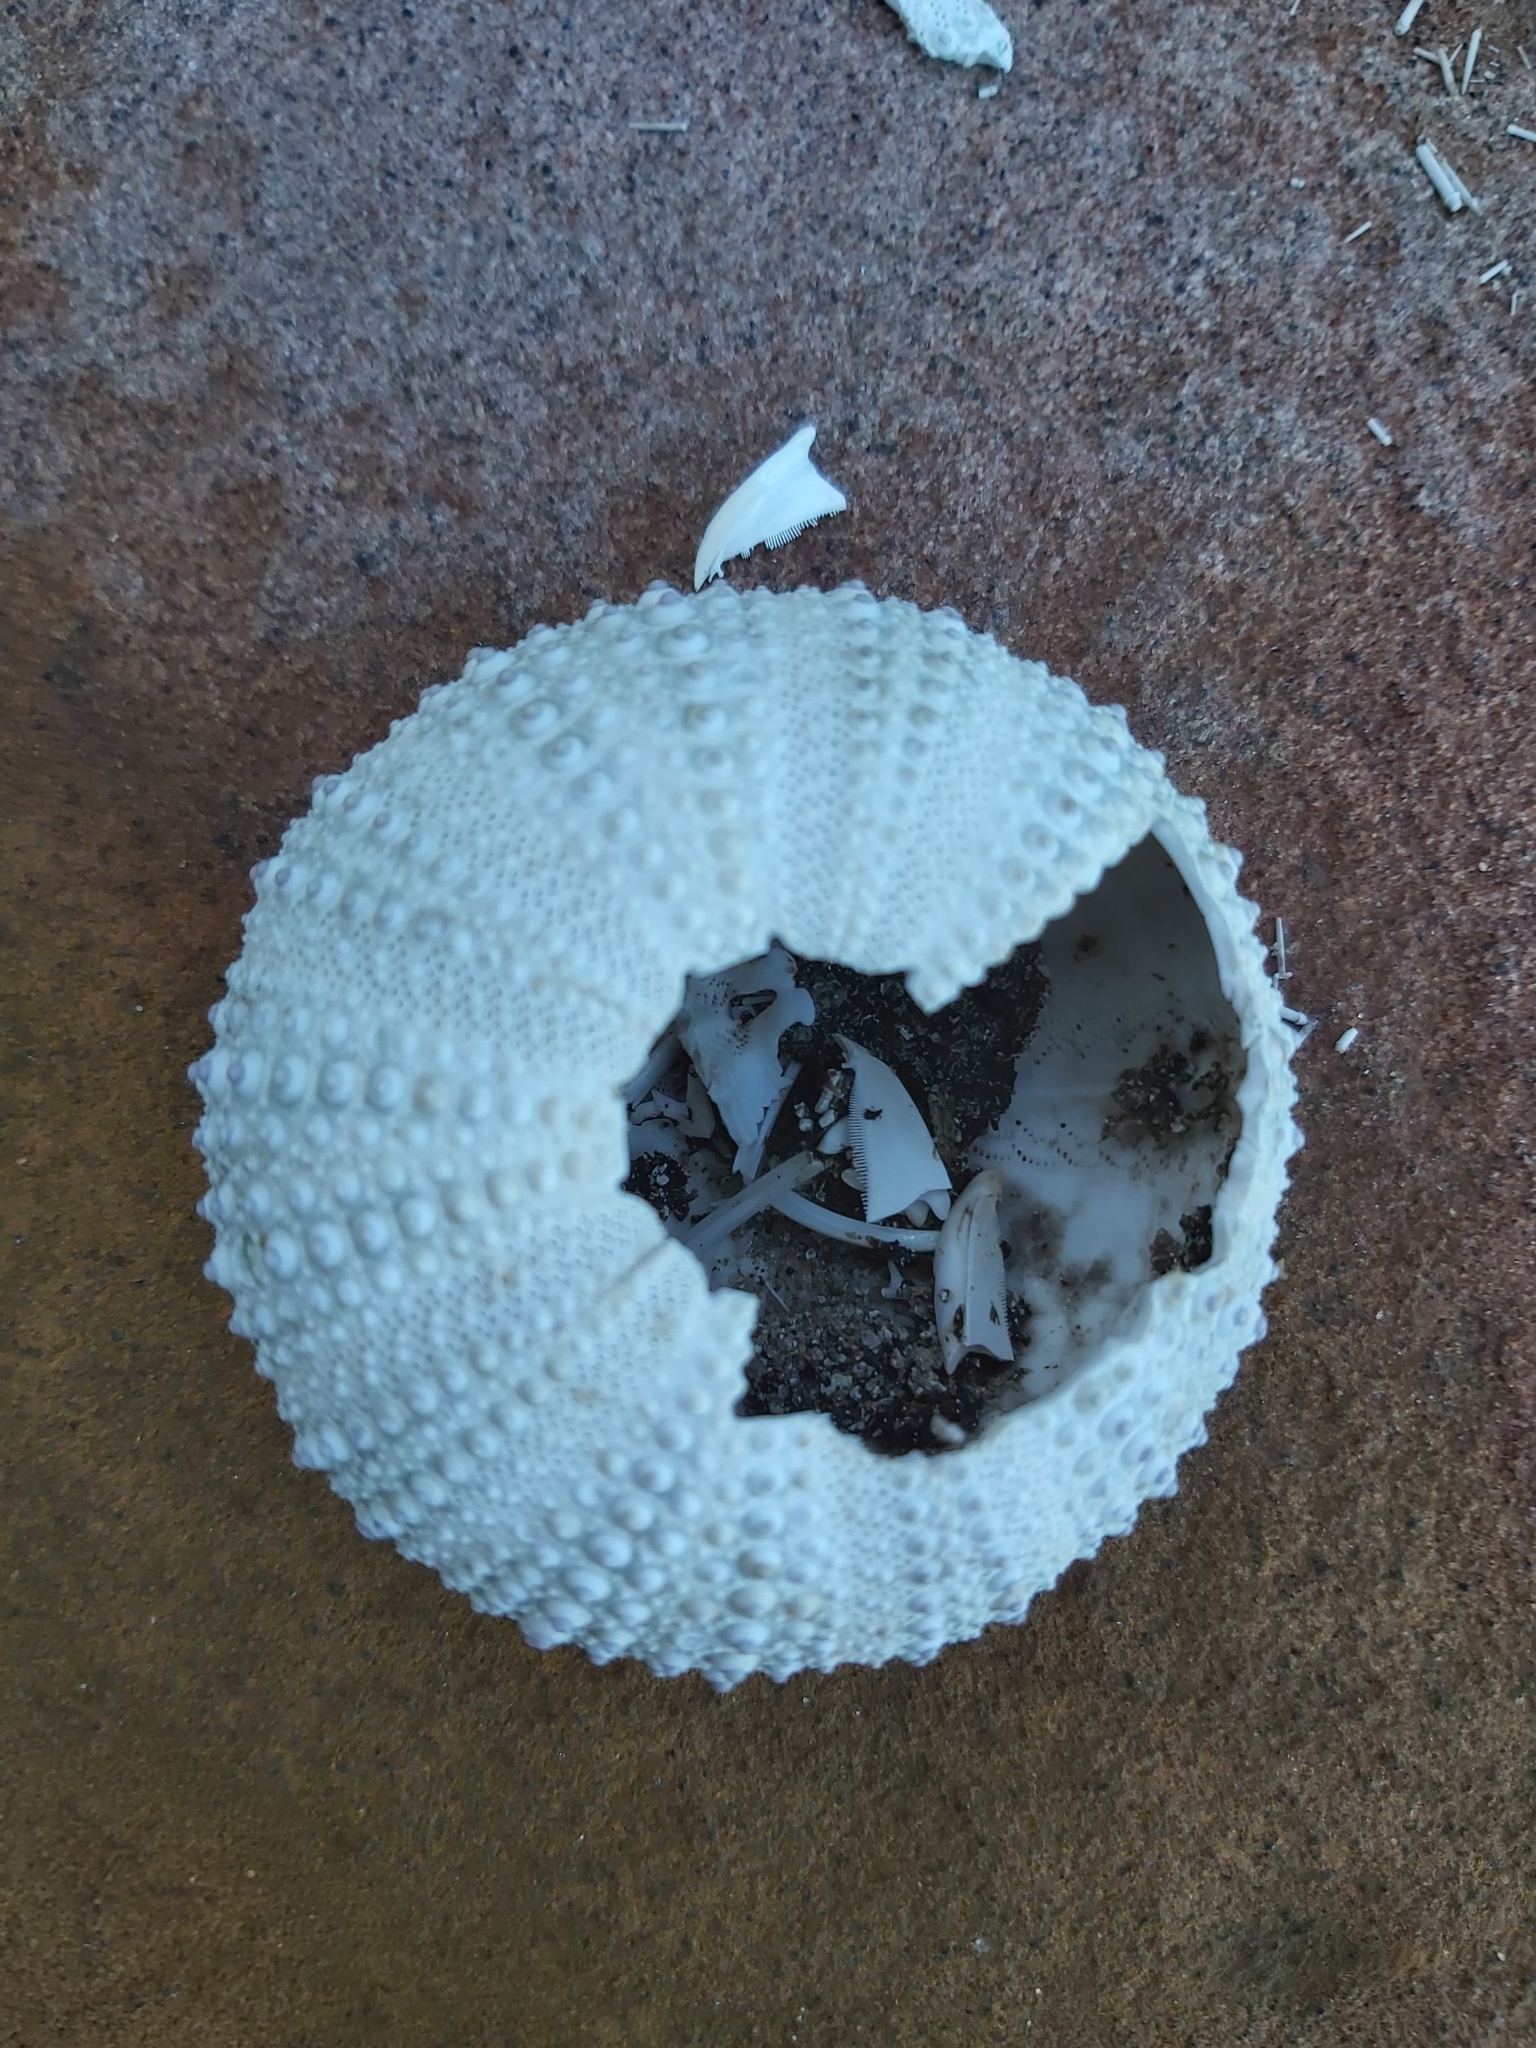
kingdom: Animalia
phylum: Echinodermata
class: Echinoidea
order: Camarodonta
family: Echinometridae
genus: Heliocidaris
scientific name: Heliocidaris erythrogramma
